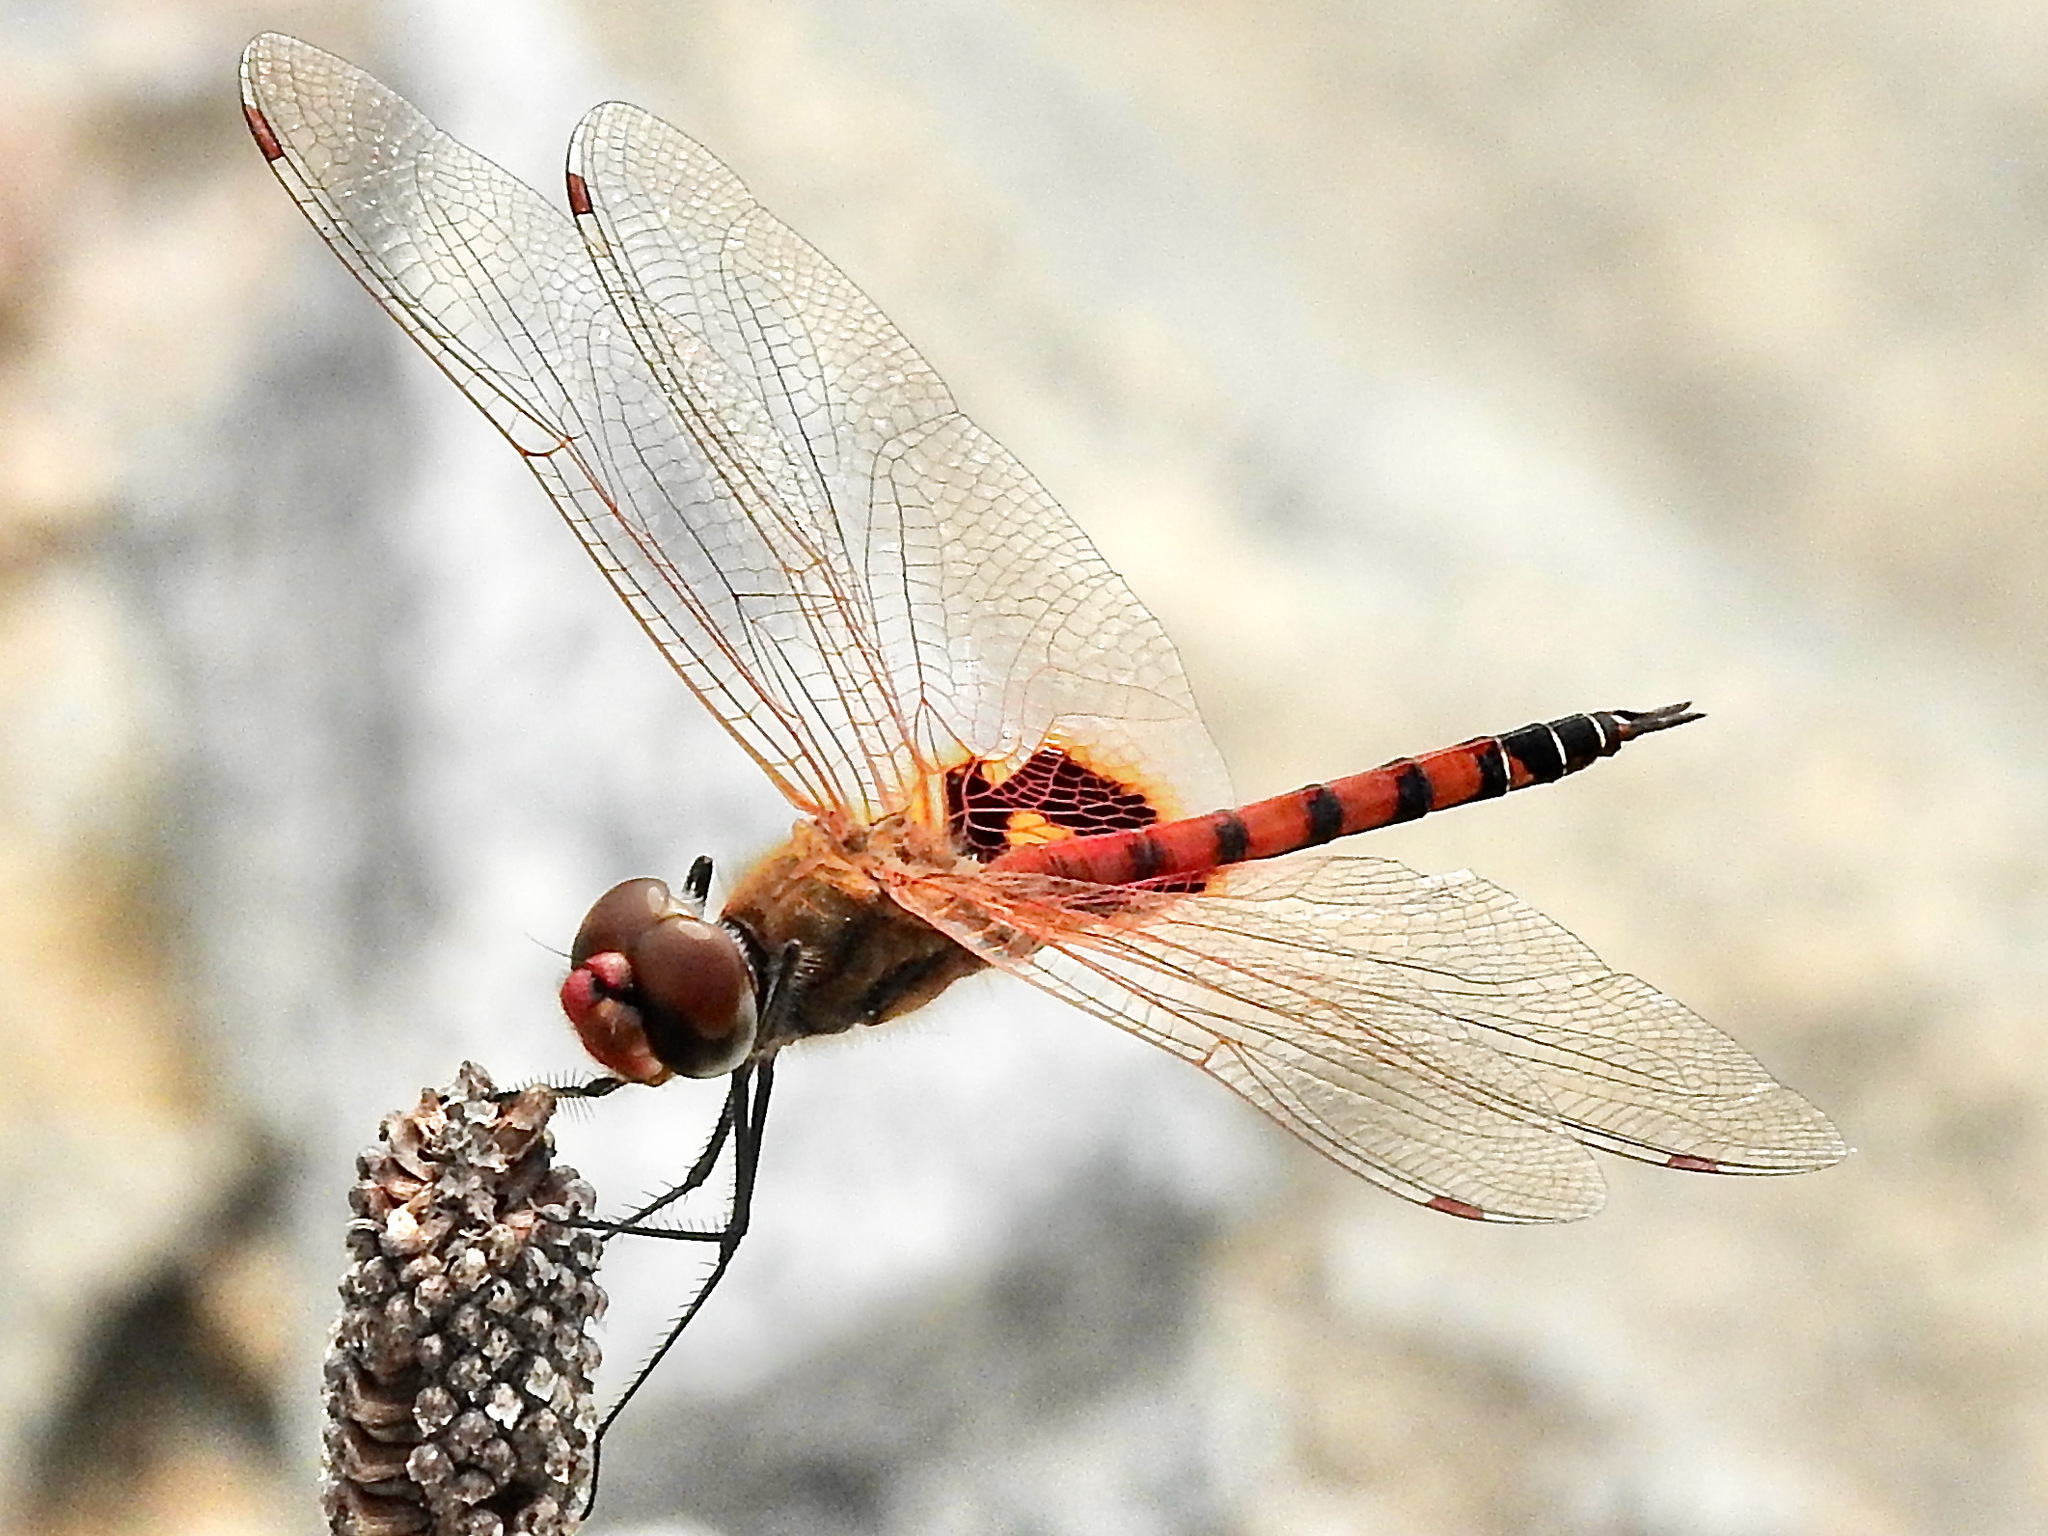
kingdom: Animalia
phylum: Arthropoda
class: Insecta
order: Odonata
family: Libellulidae
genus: Tramea
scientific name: Tramea basilaris
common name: Keyhole glider
